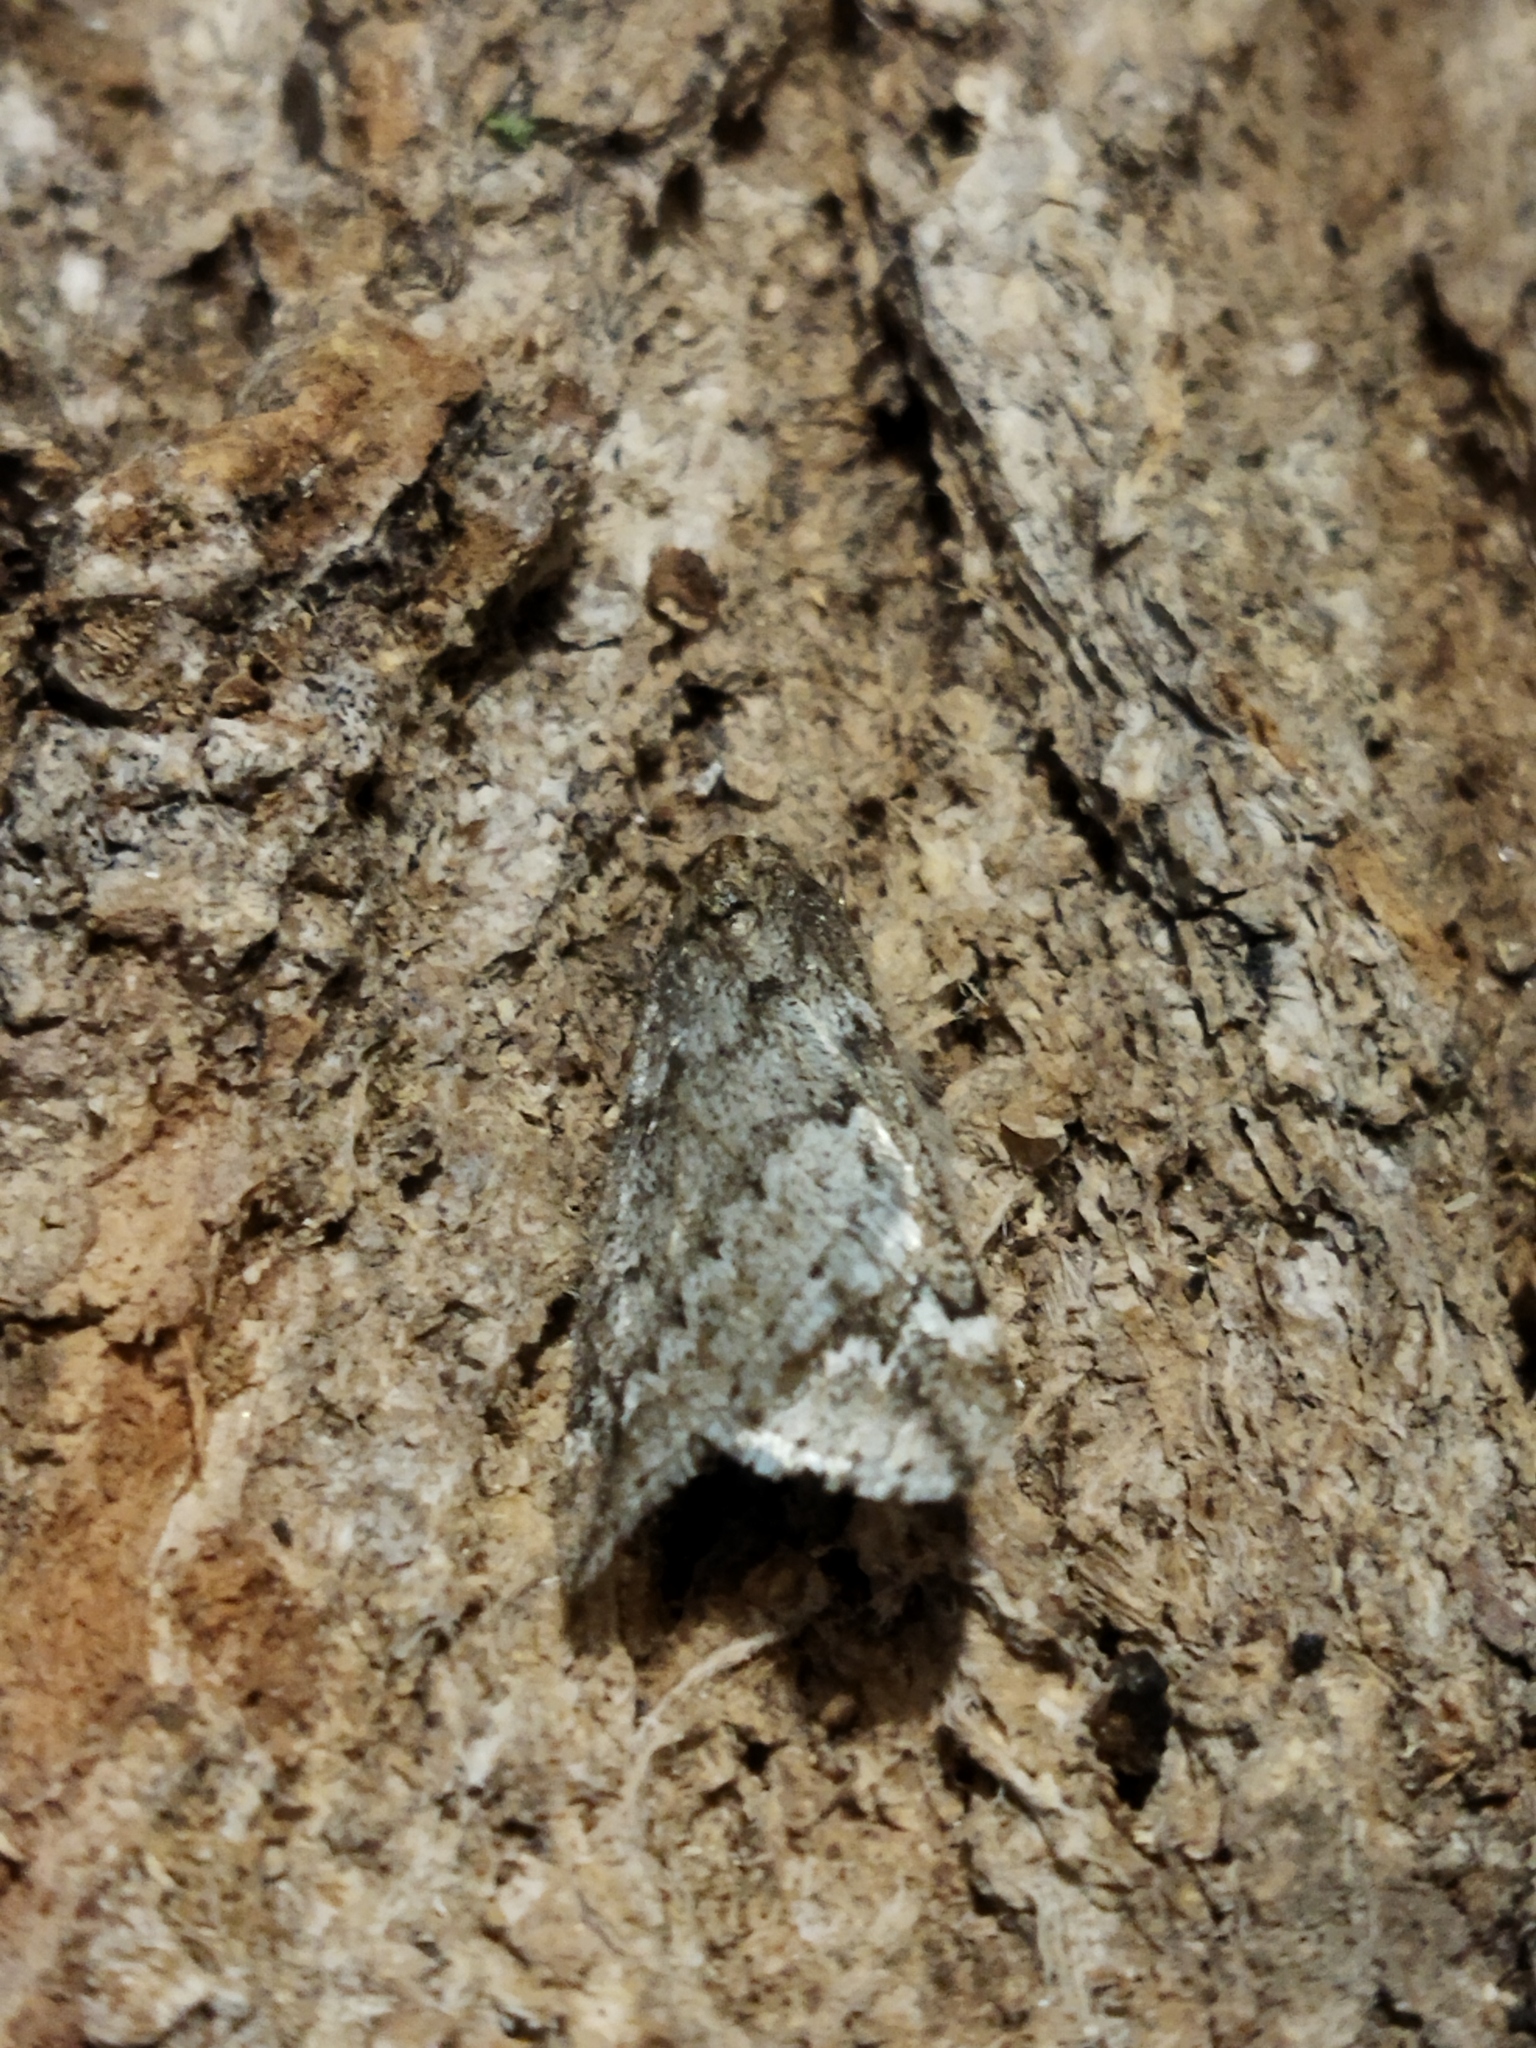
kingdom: Animalia
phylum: Arthropoda
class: Insecta
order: Lepidoptera
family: Geometridae
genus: Alsophila
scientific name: Alsophila aescularia
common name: March moth
